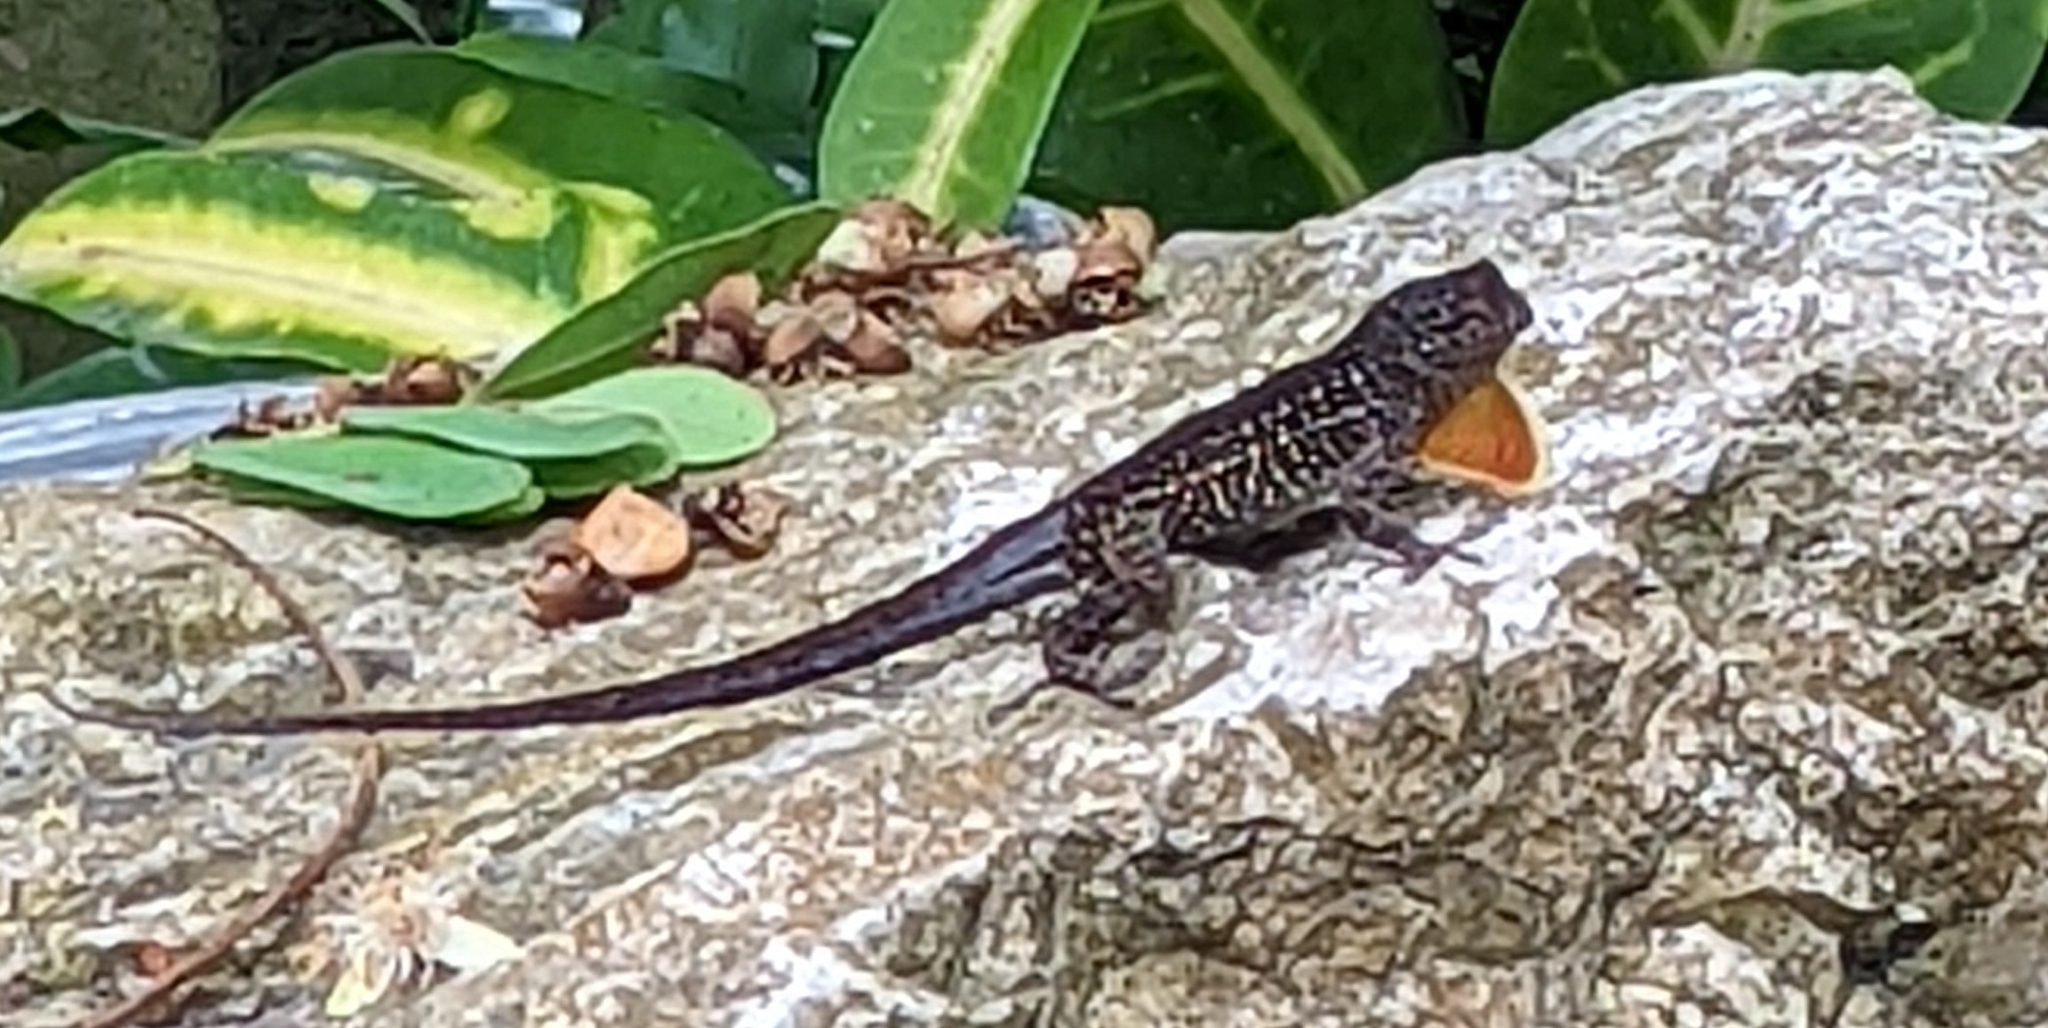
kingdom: Animalia
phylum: Chordata
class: Squamata
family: Dactyloidae
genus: Anolis
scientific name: Anolis sagrei
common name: Brown anole
